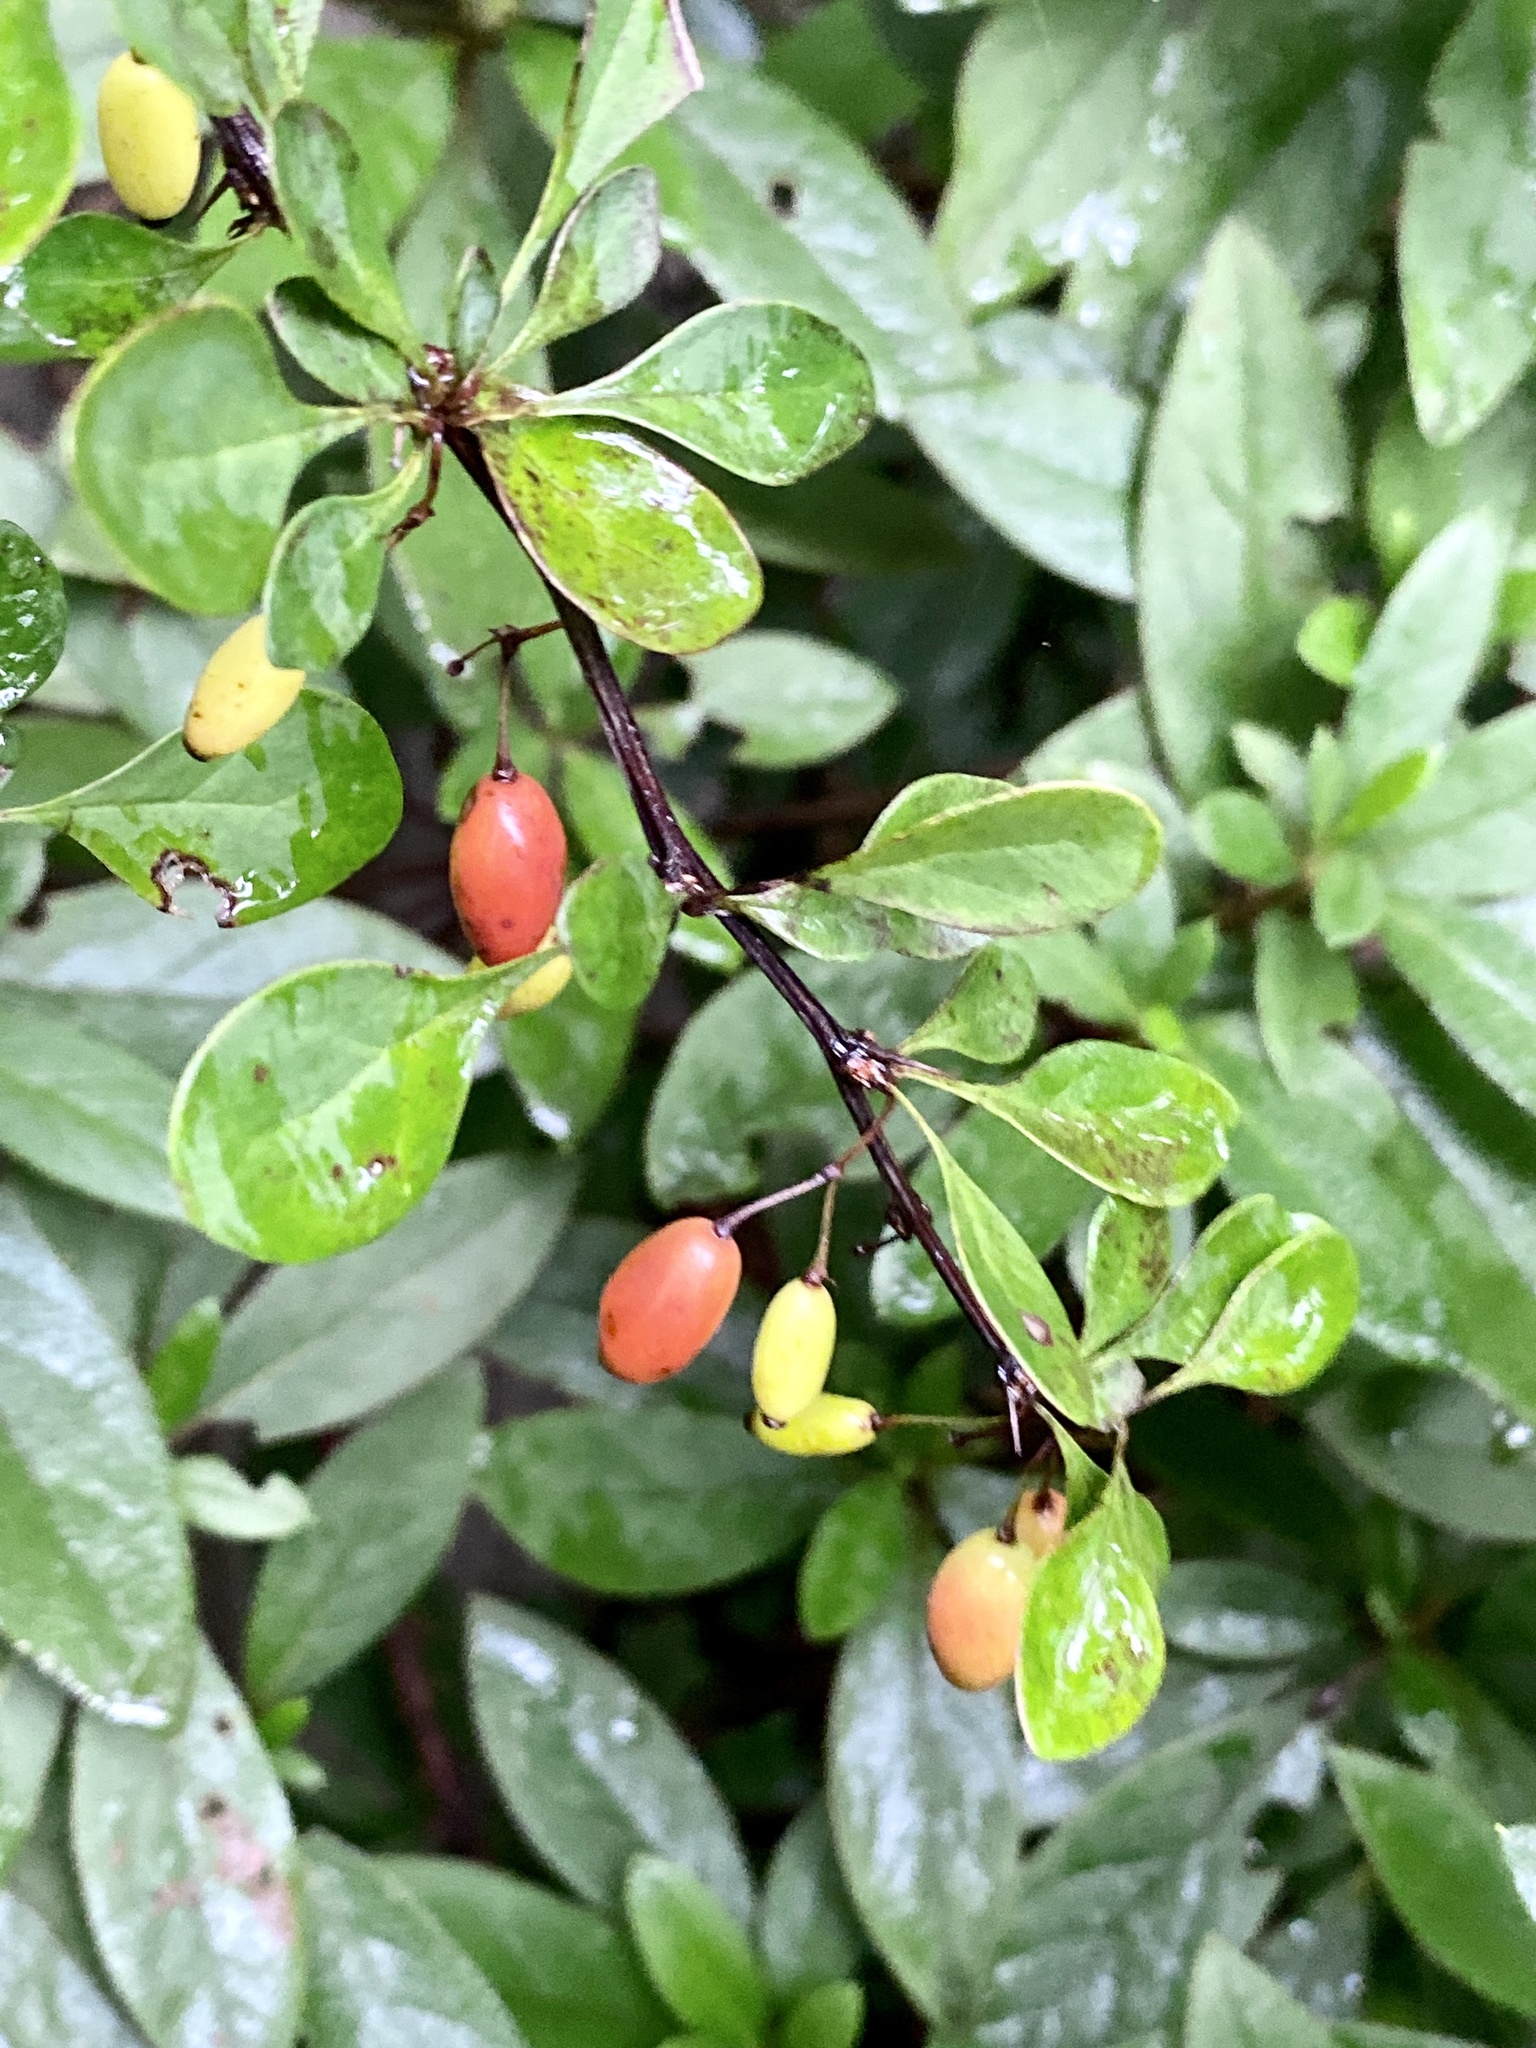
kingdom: Plantae
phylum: Tracheophyta
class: Magnoliopsida
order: Ranunculales
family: Berberidaceae
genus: Berberis
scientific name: Berberis thunbergii
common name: Japanese barberry
